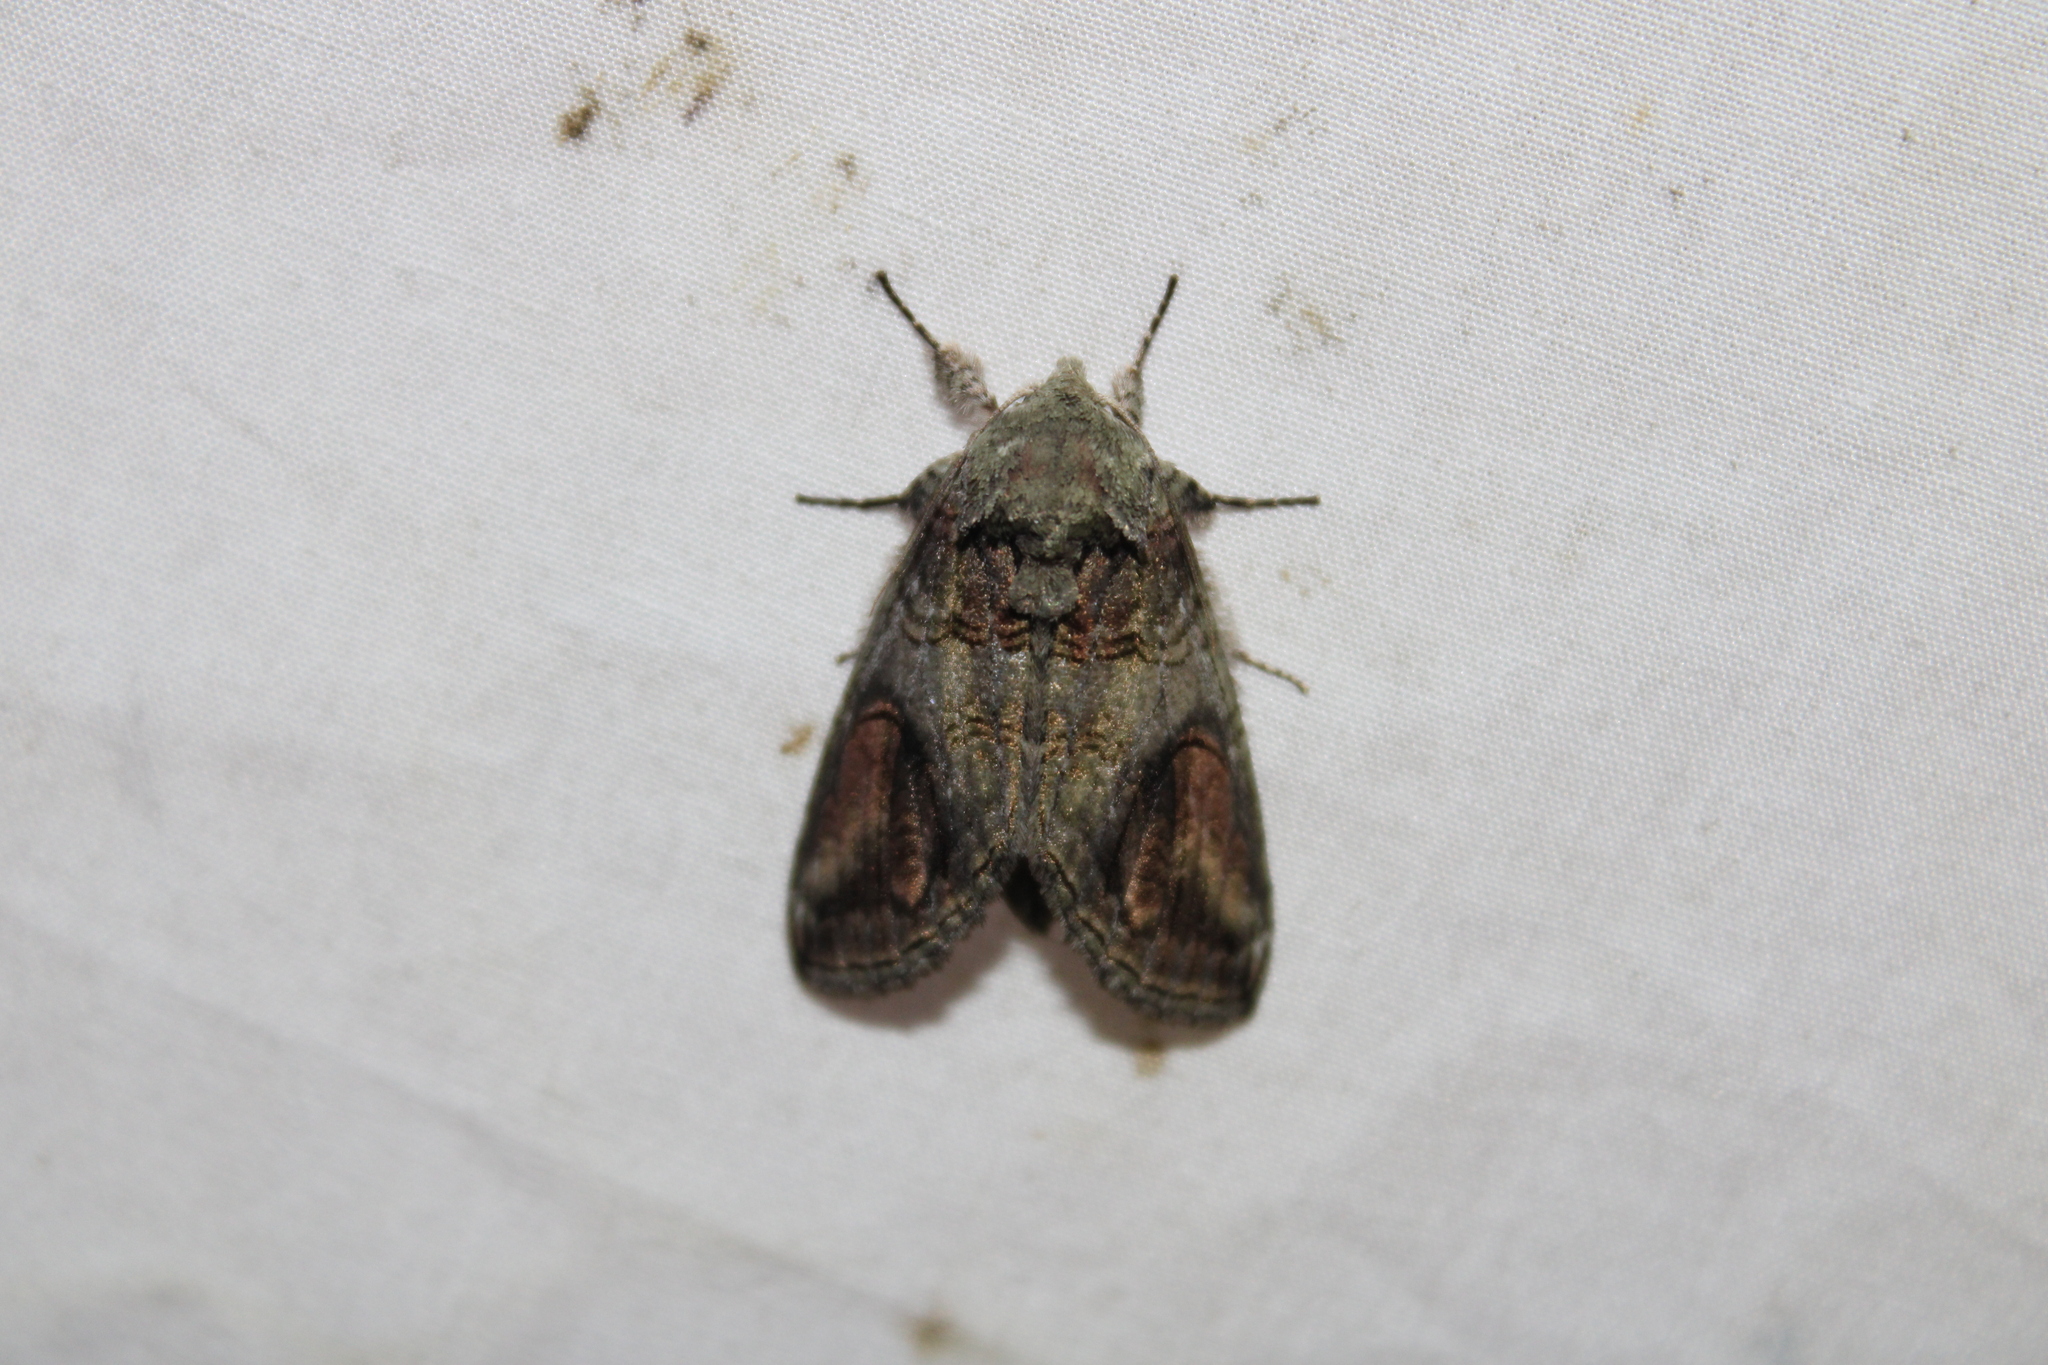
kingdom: Animalia
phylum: Arthropoda
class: Insecta
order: Lepidoptera
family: Notodontidae
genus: Heterocampa
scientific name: Heterocampa obliqua
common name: Oblique heterocampa
